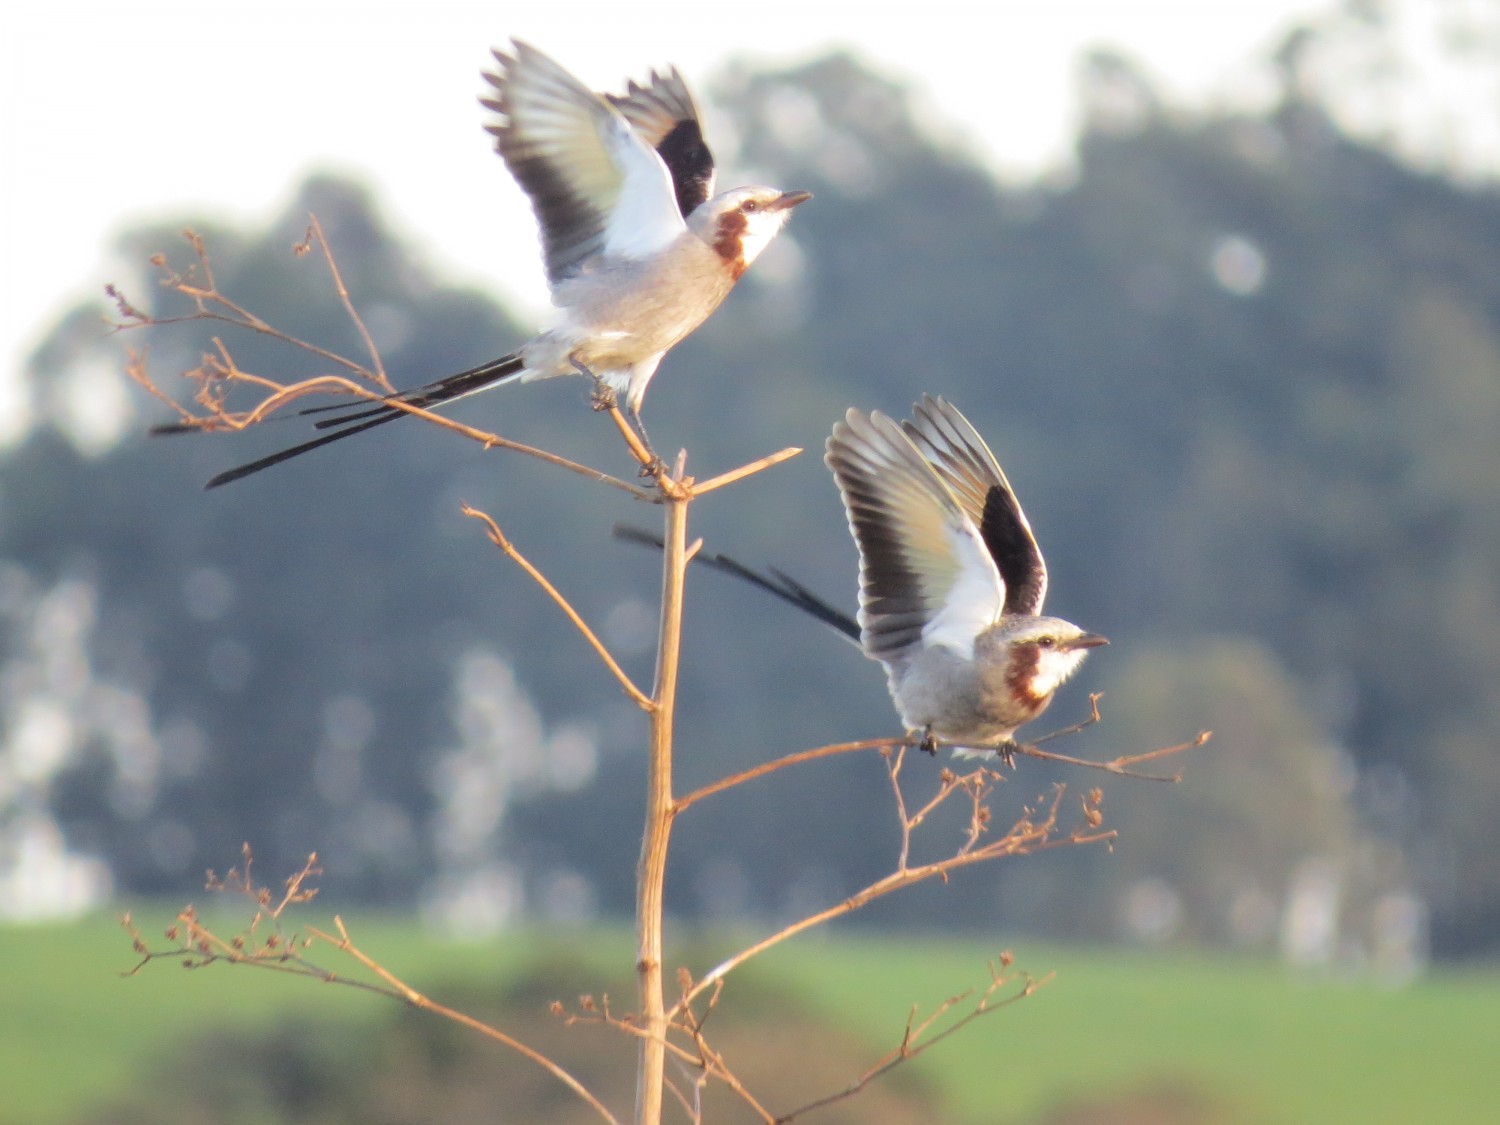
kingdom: Animalia
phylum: Chordata
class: Aves
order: Passeriformes
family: Tyrannidae
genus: Gubernetes
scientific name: Gubernetes yetapa
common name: Streamer-tailed tyrant
